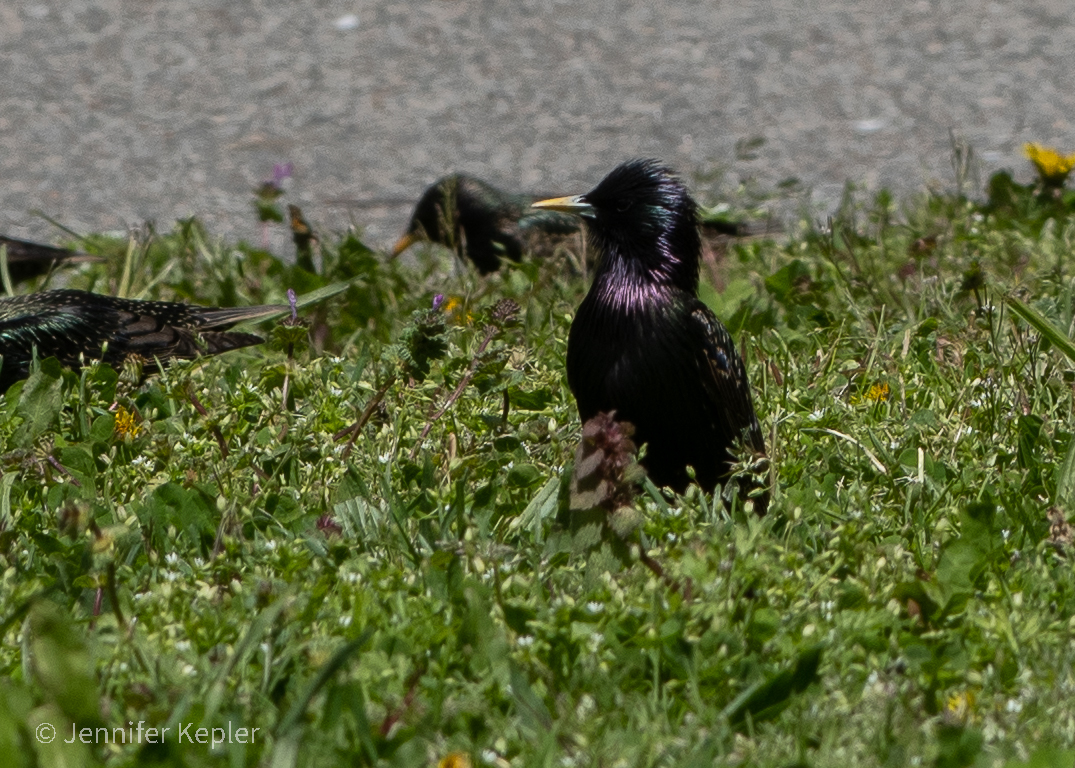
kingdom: Animalia
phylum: Chordata
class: Aves
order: Passeriformes
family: Sturnidae
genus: Sturnus
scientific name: Sturnus vulgaris
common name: Common starling
